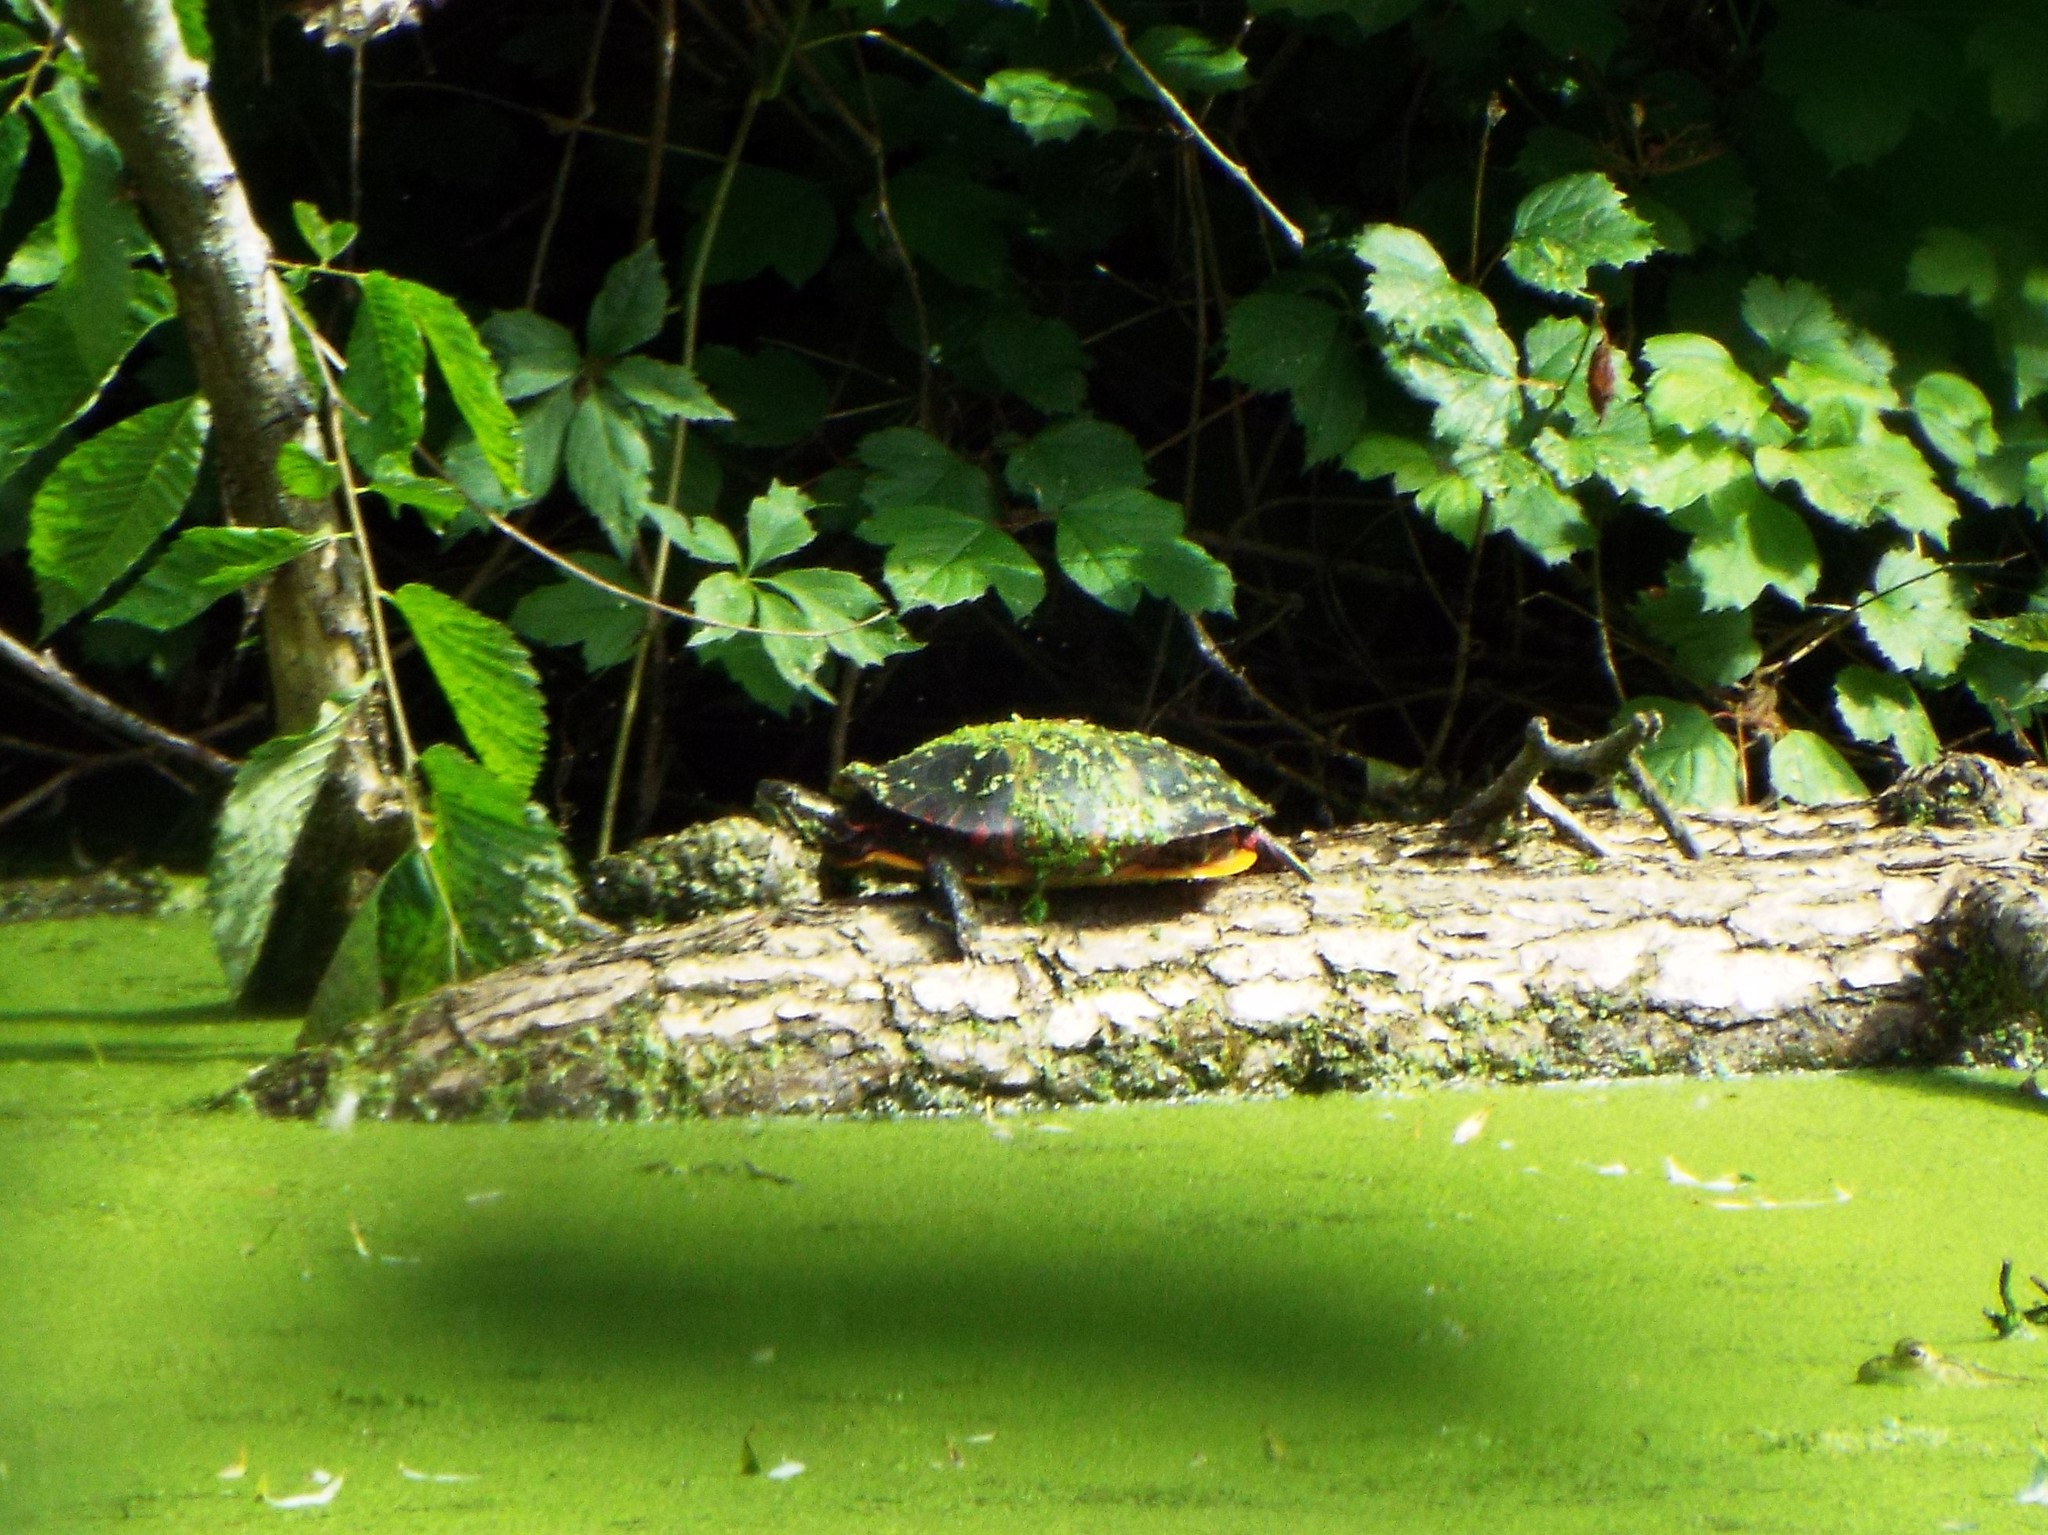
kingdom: Animalia
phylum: Chordata
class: Testudines
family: Emydidae
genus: Chrysemys
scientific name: Chrysemys picta
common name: Painted turtle
